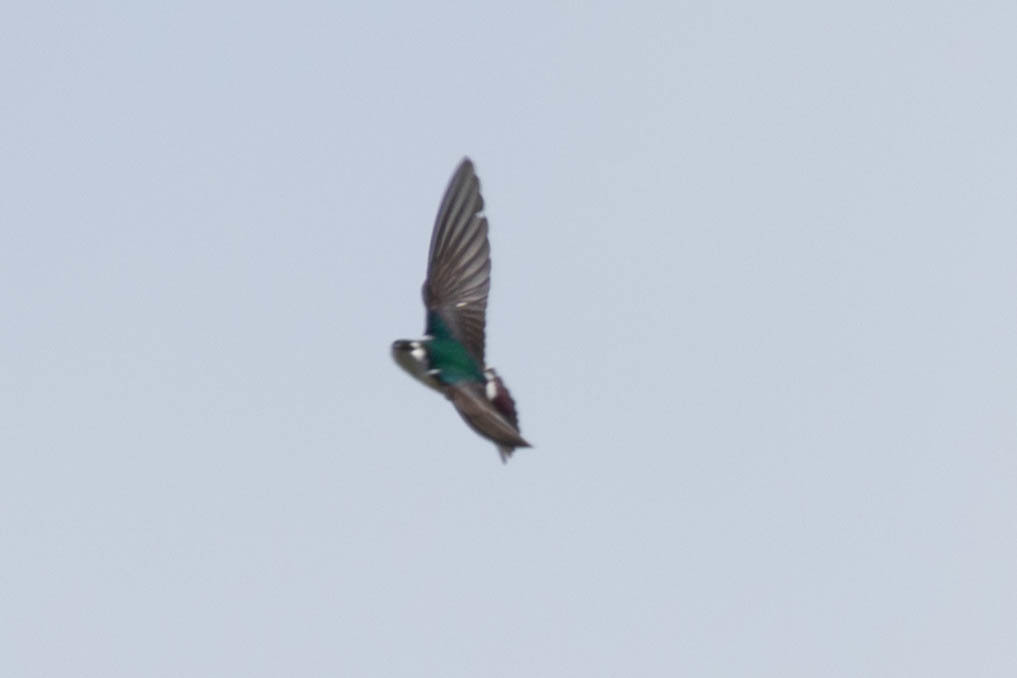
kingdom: Animalia
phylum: Chordata
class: Aves
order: Passeriformes
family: Hirundinidae
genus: Tachycineta
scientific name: Tachycineta thalassina
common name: Violet-green swallow
